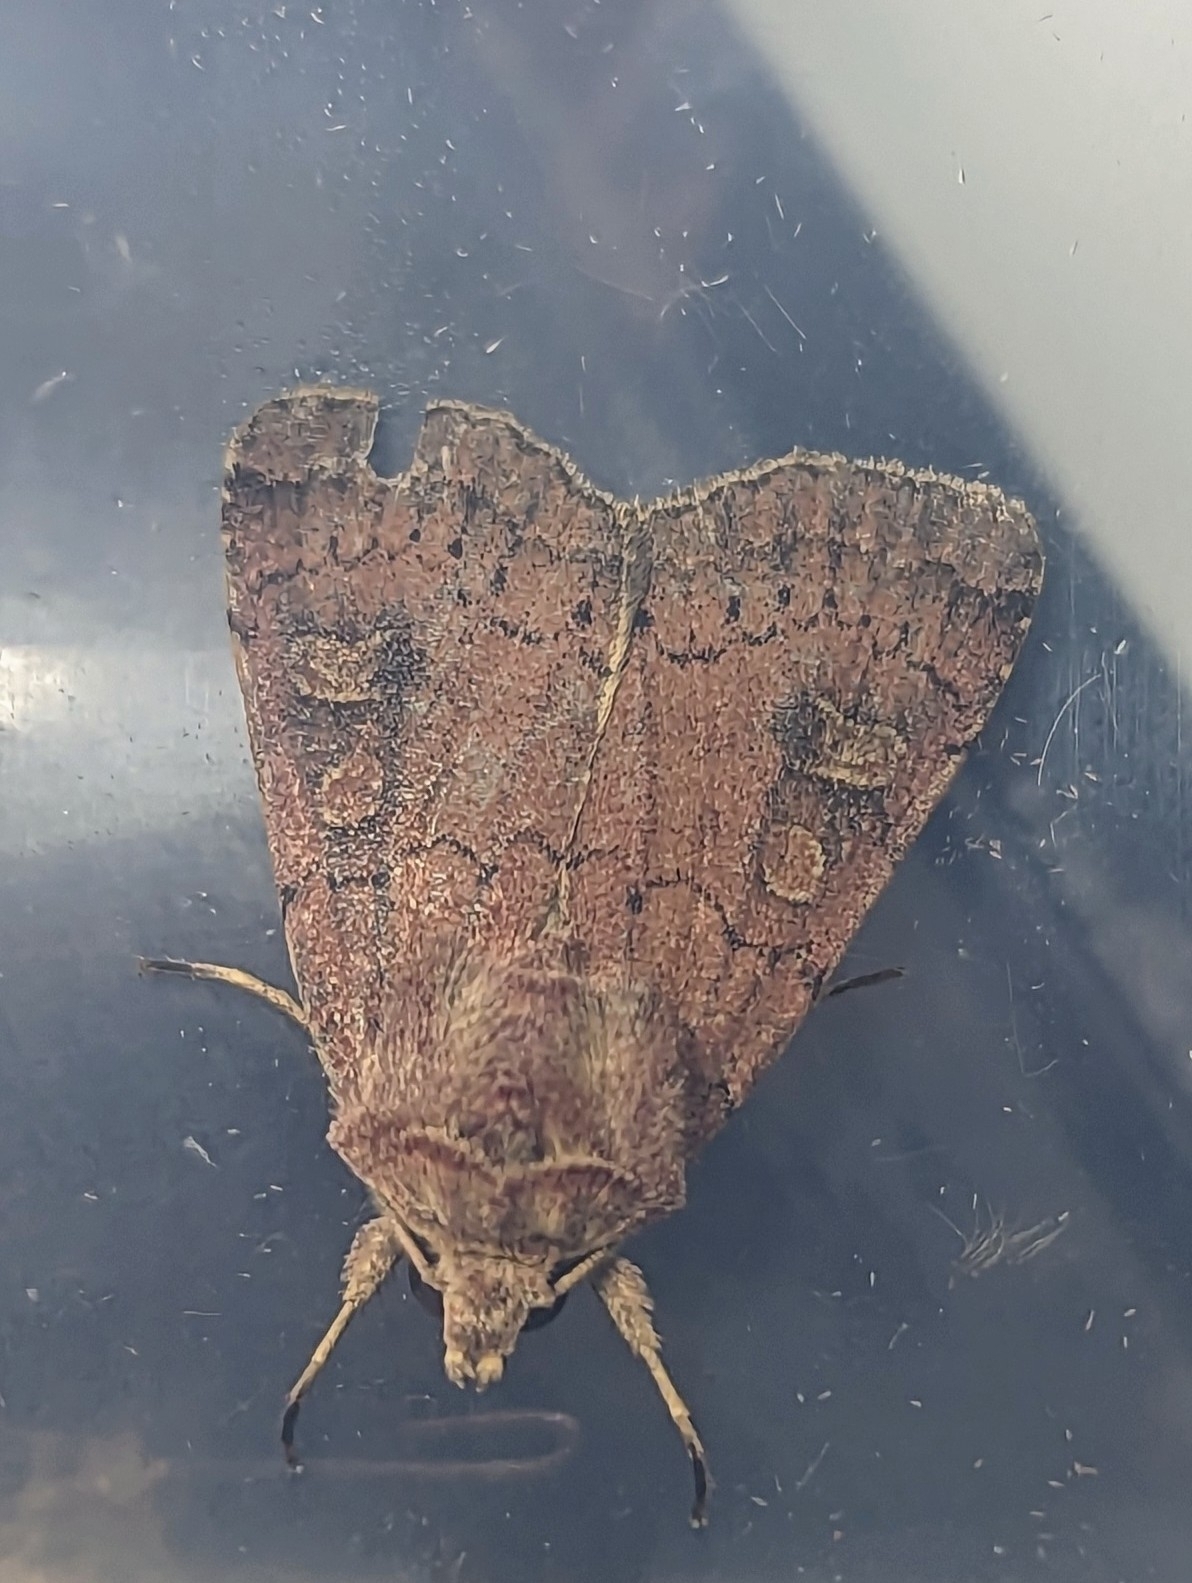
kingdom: Animalia
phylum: Arthropoda
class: Insecta
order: Lepidoptera
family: Noctuidae
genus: Xestia
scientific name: Xestia xanthographa
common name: Square-spot rustic
